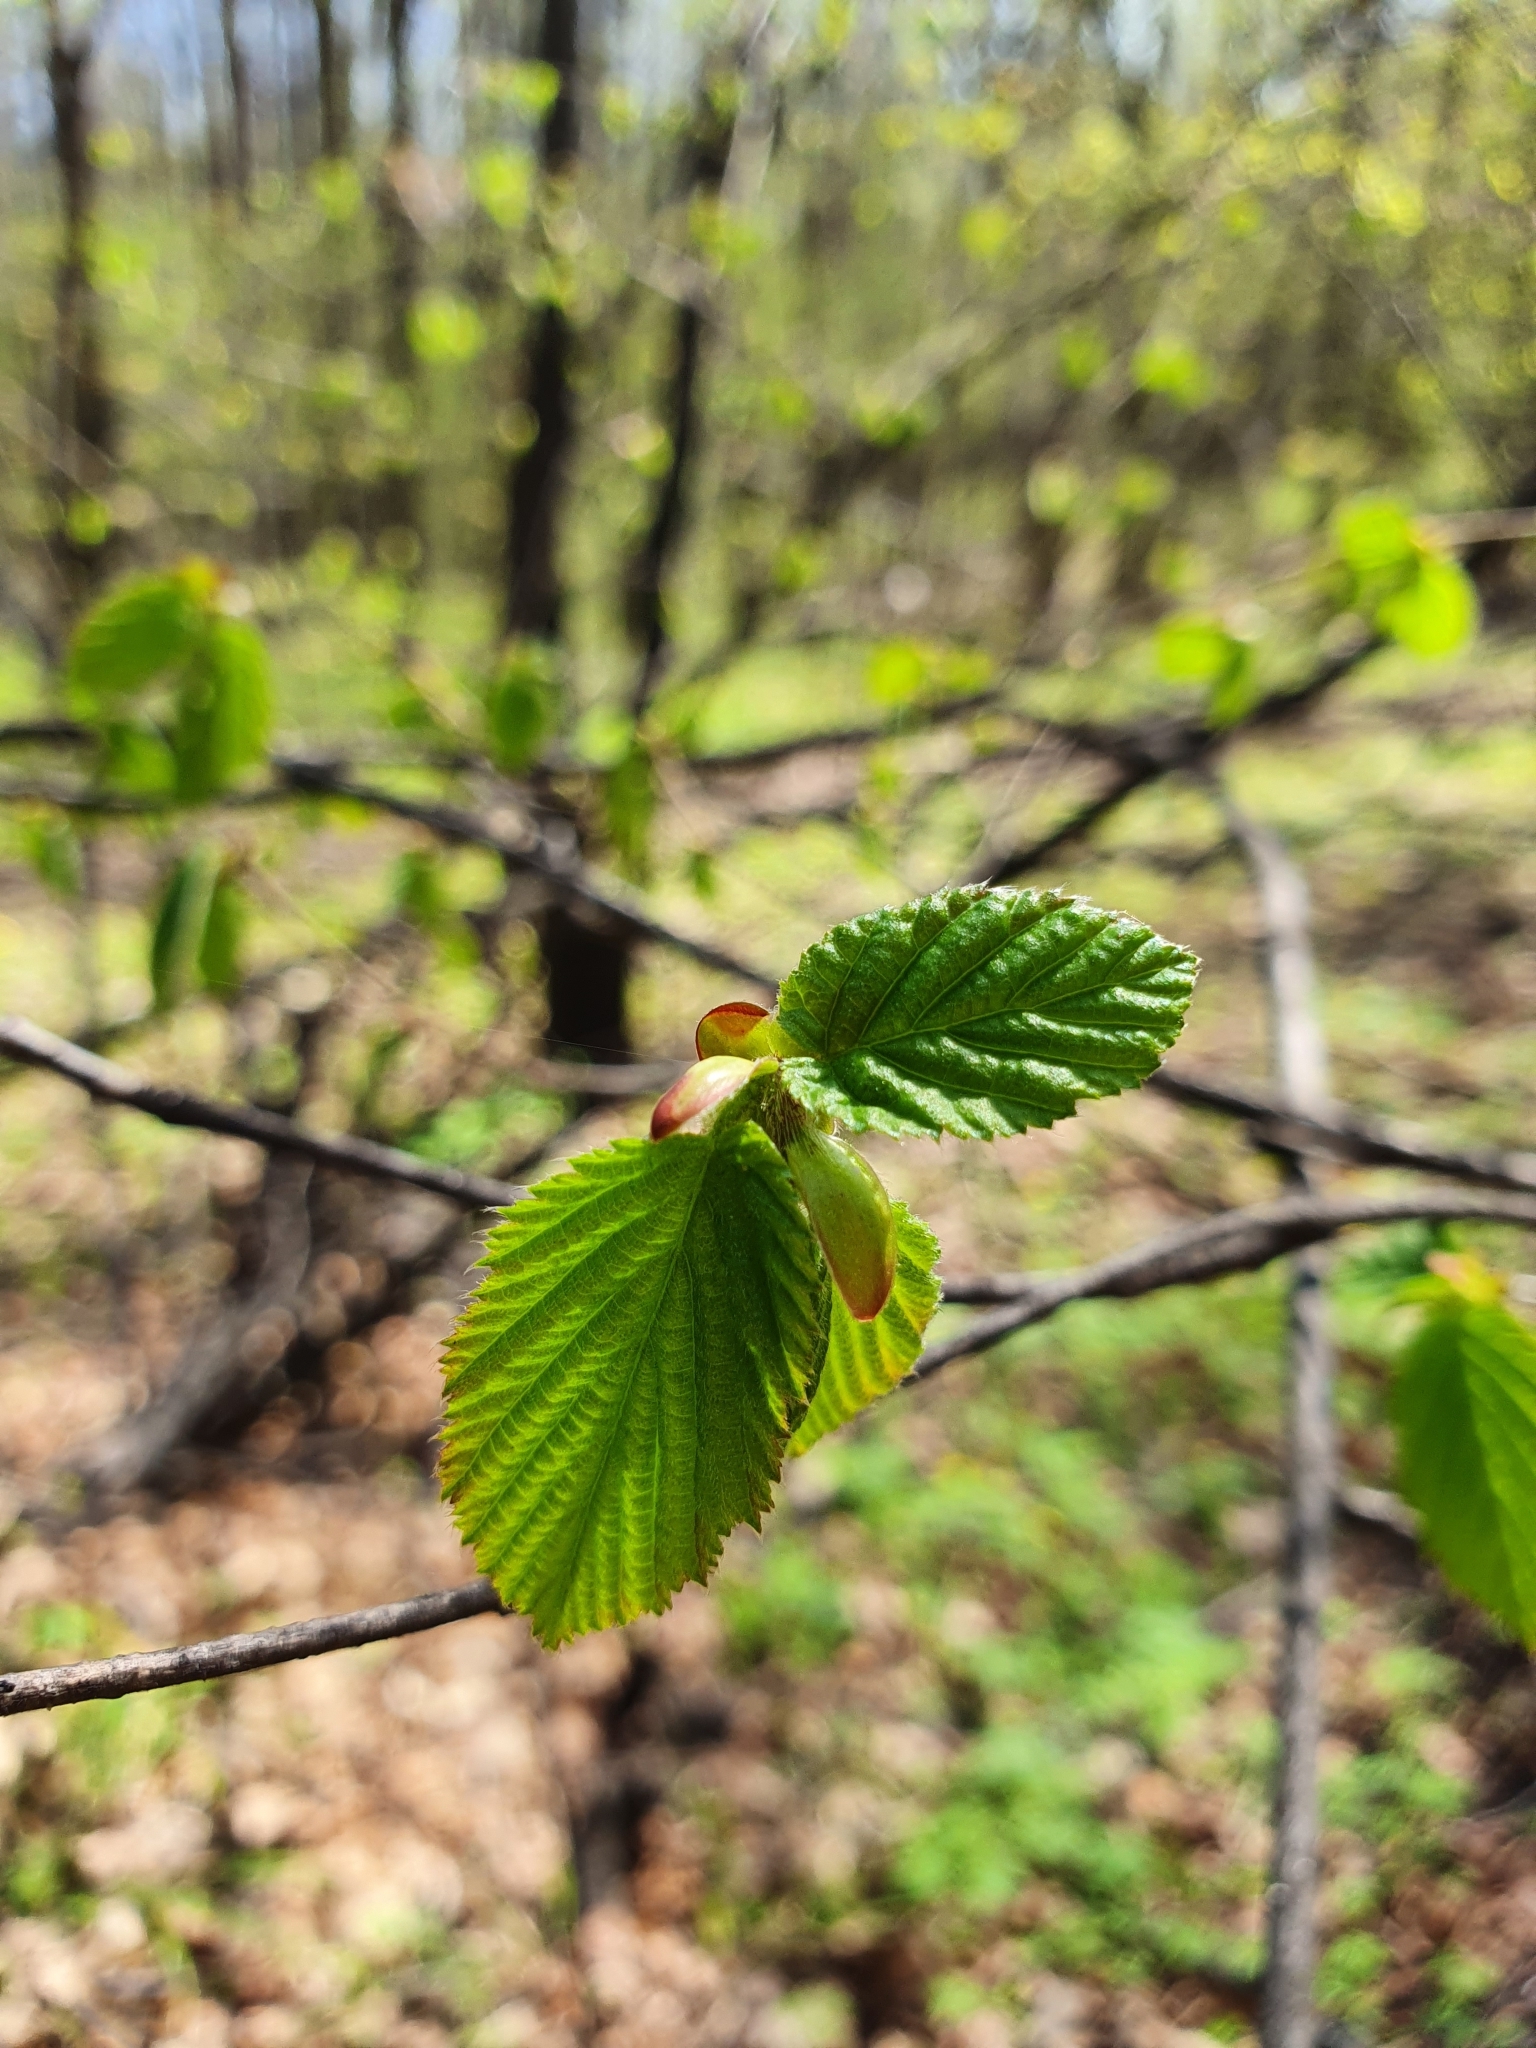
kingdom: Plantae
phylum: Tracheophyta
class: Magnoliopsida
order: Fagales
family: Betulaceae
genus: Corylus
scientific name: Corylus avellana
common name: European hazel
